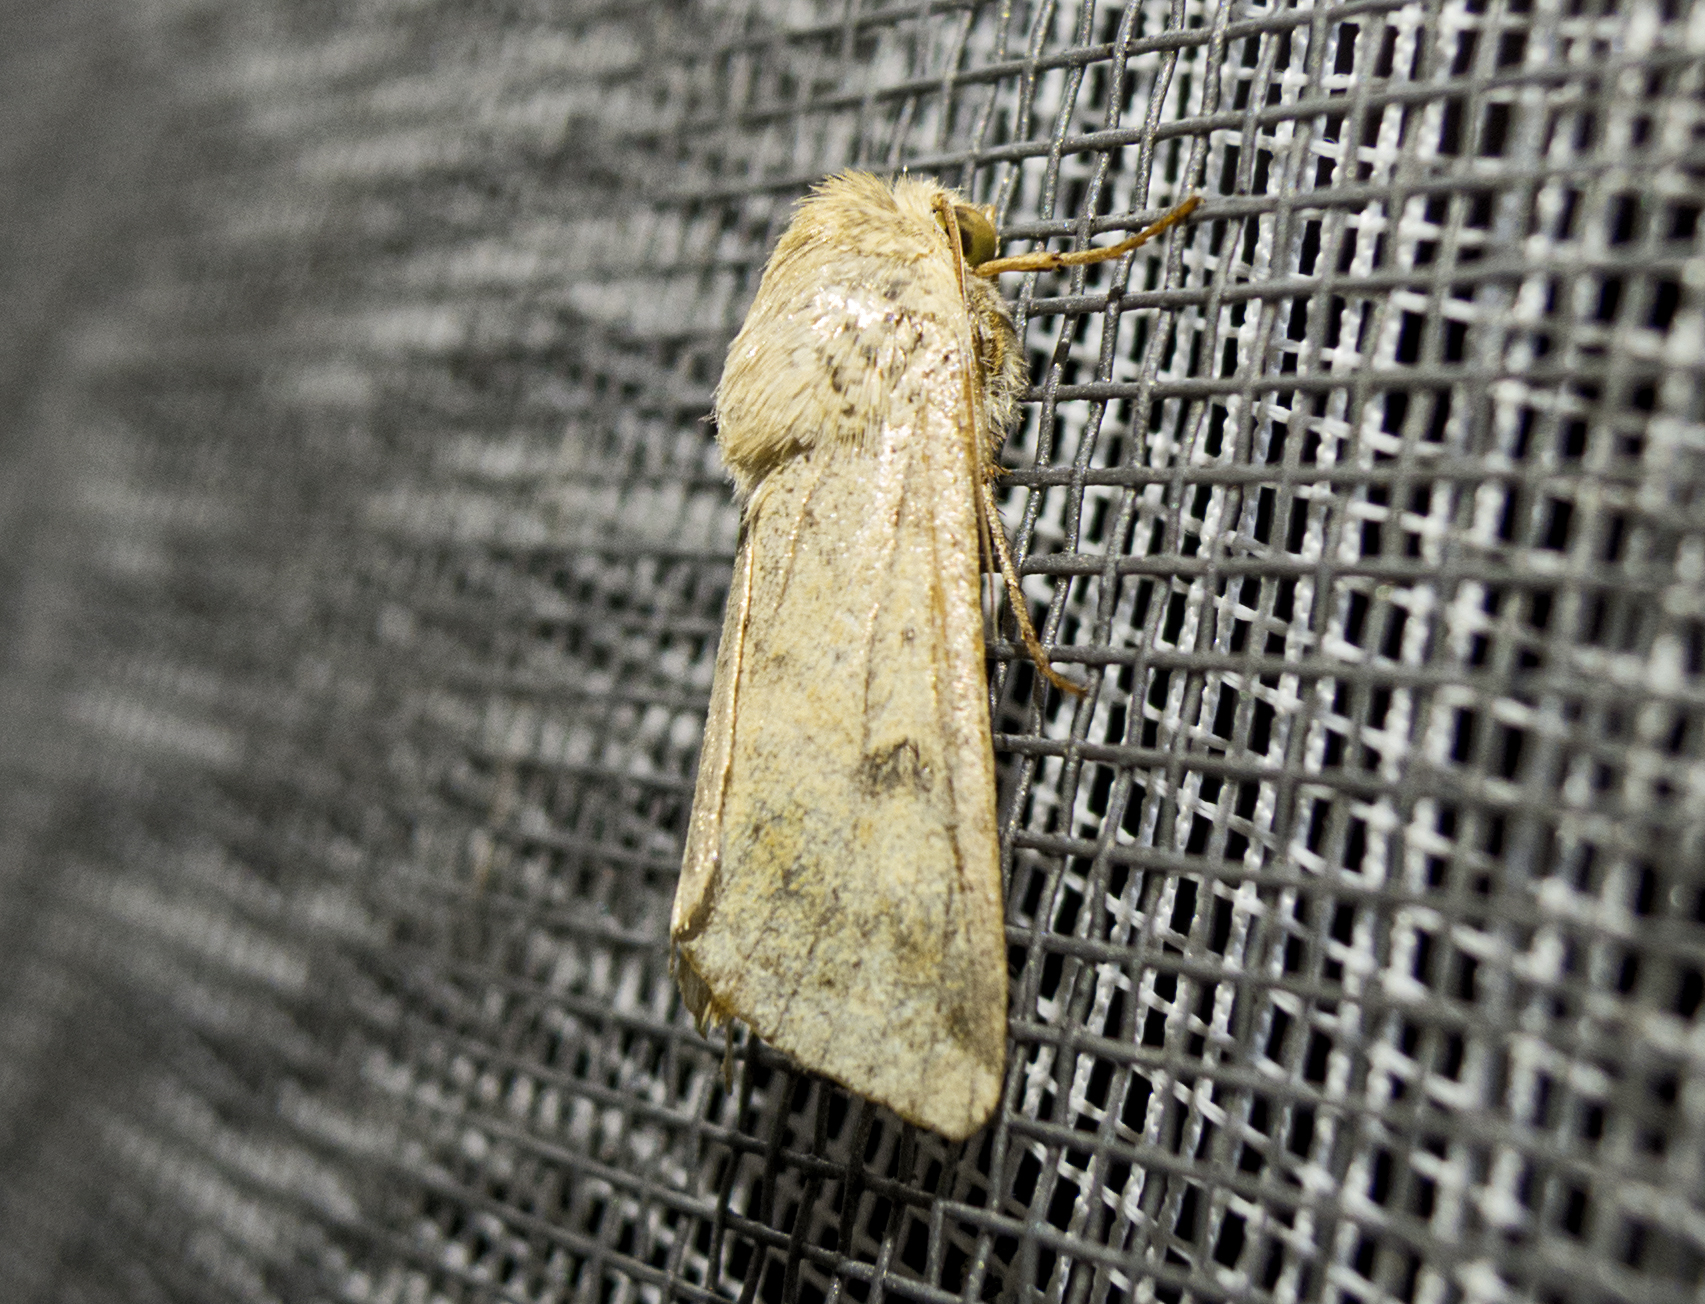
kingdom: Animalia
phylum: Arthropoda
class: Insecta
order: Lepidoptera
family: Noctuidae
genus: Helicoverpa
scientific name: Helicoverpa armigera
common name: Cotton bollworm
